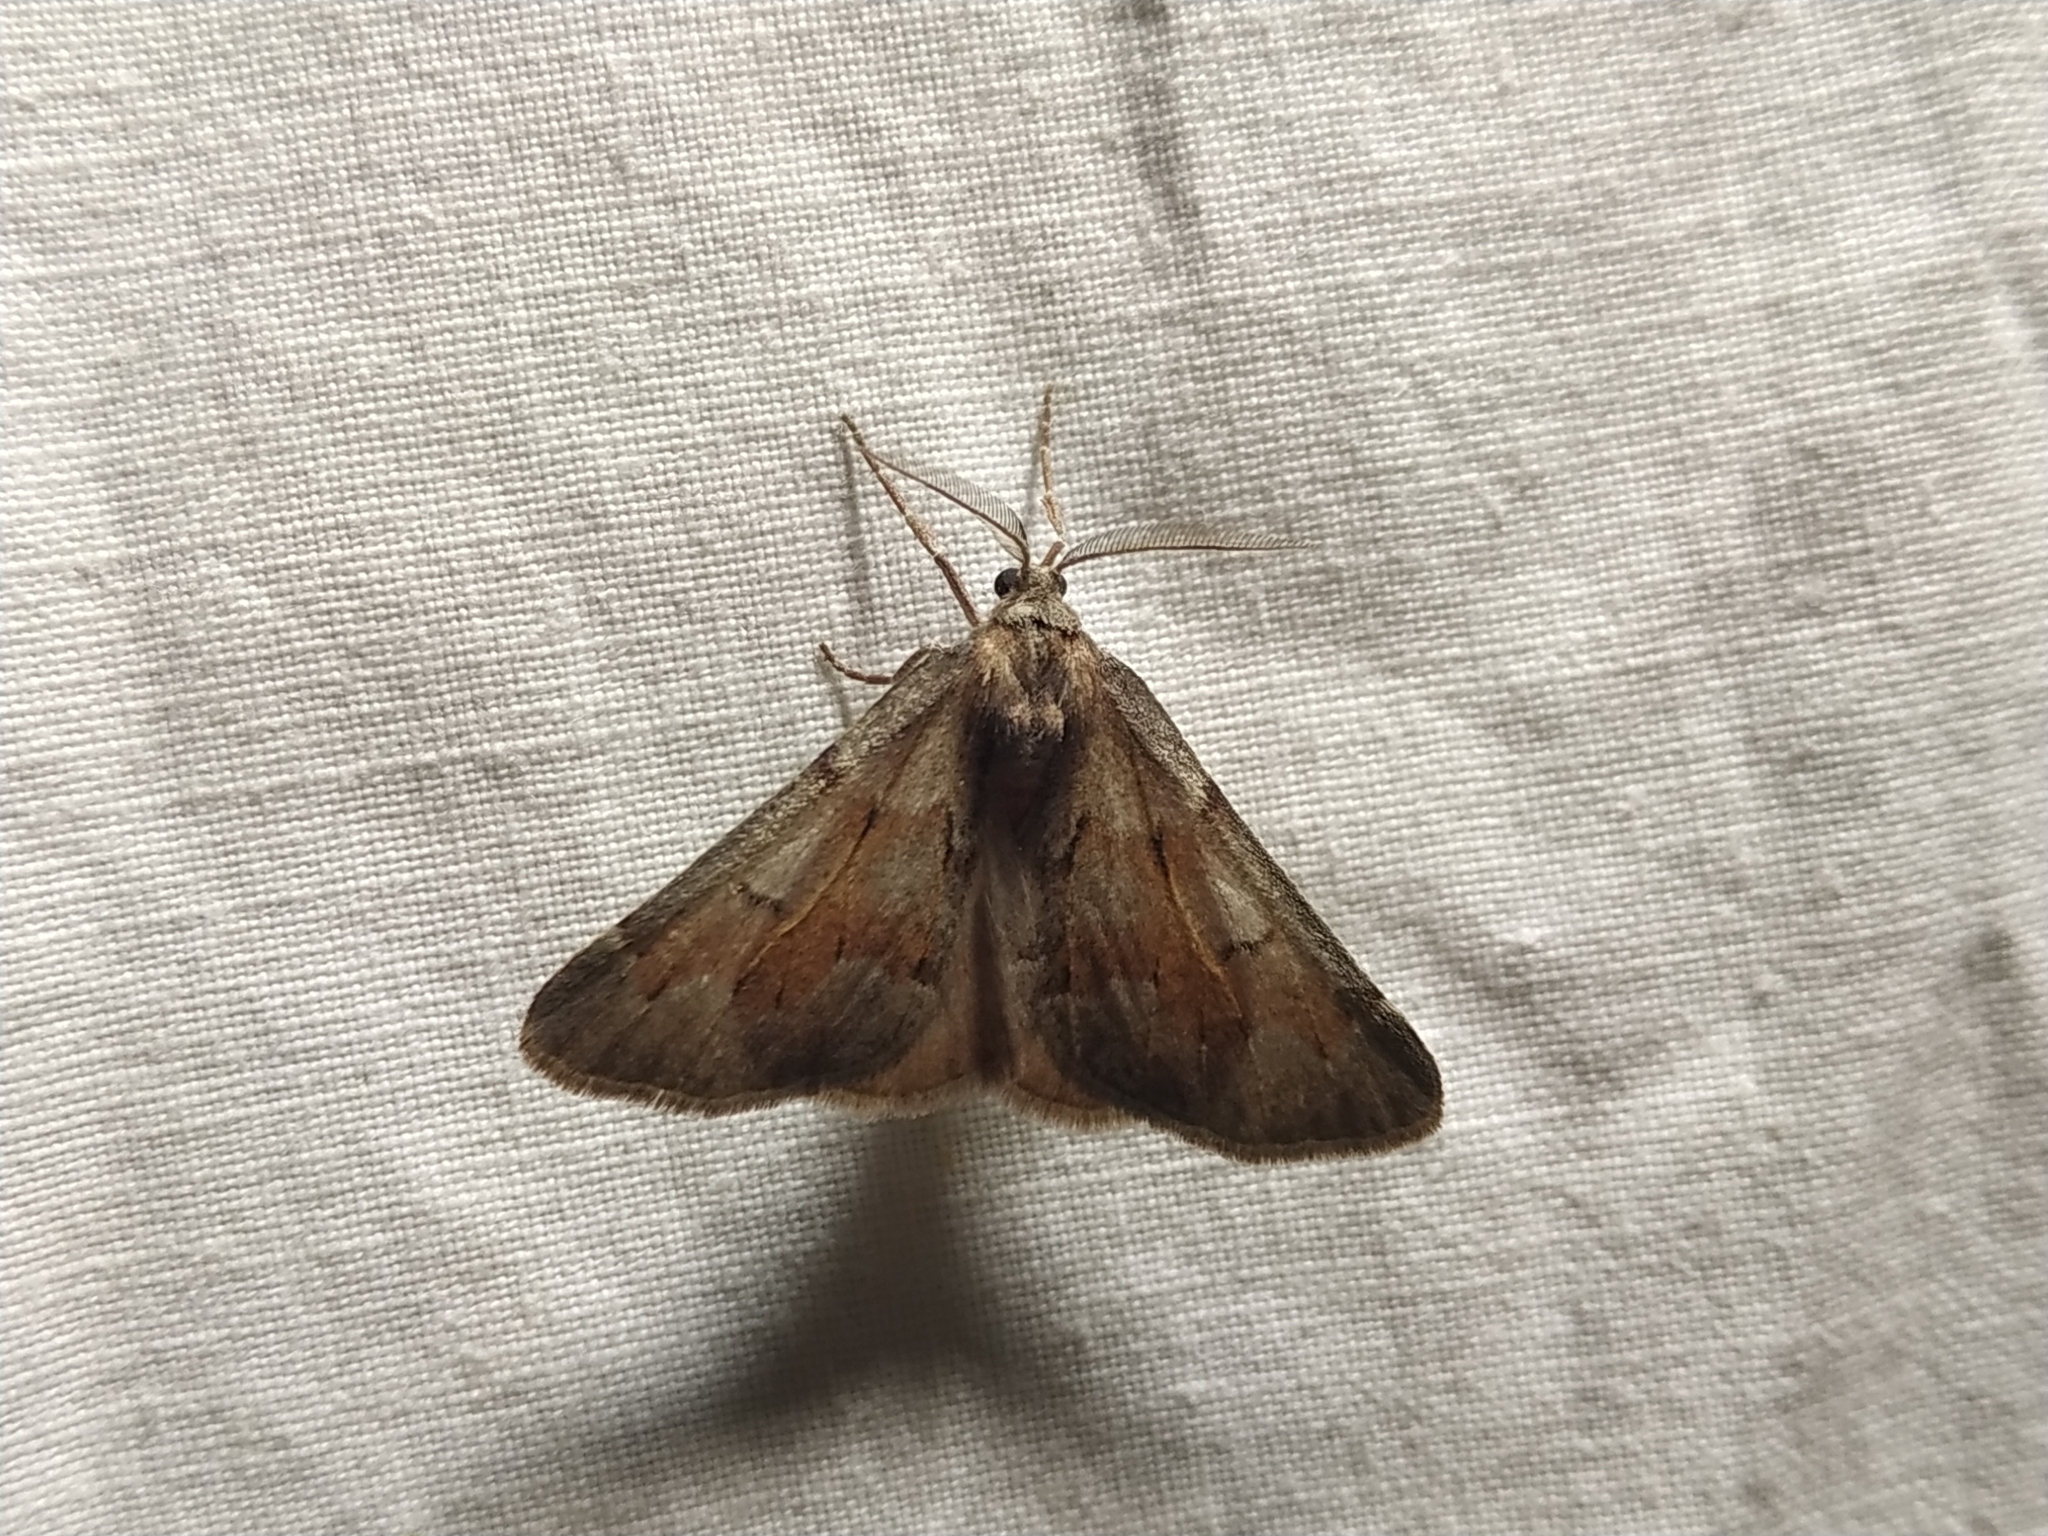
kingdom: Animalia
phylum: Arthropoda
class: Insecta
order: Lepidoptera
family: Geometridae
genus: Adalbertia
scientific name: Adalbertia castiliaria
